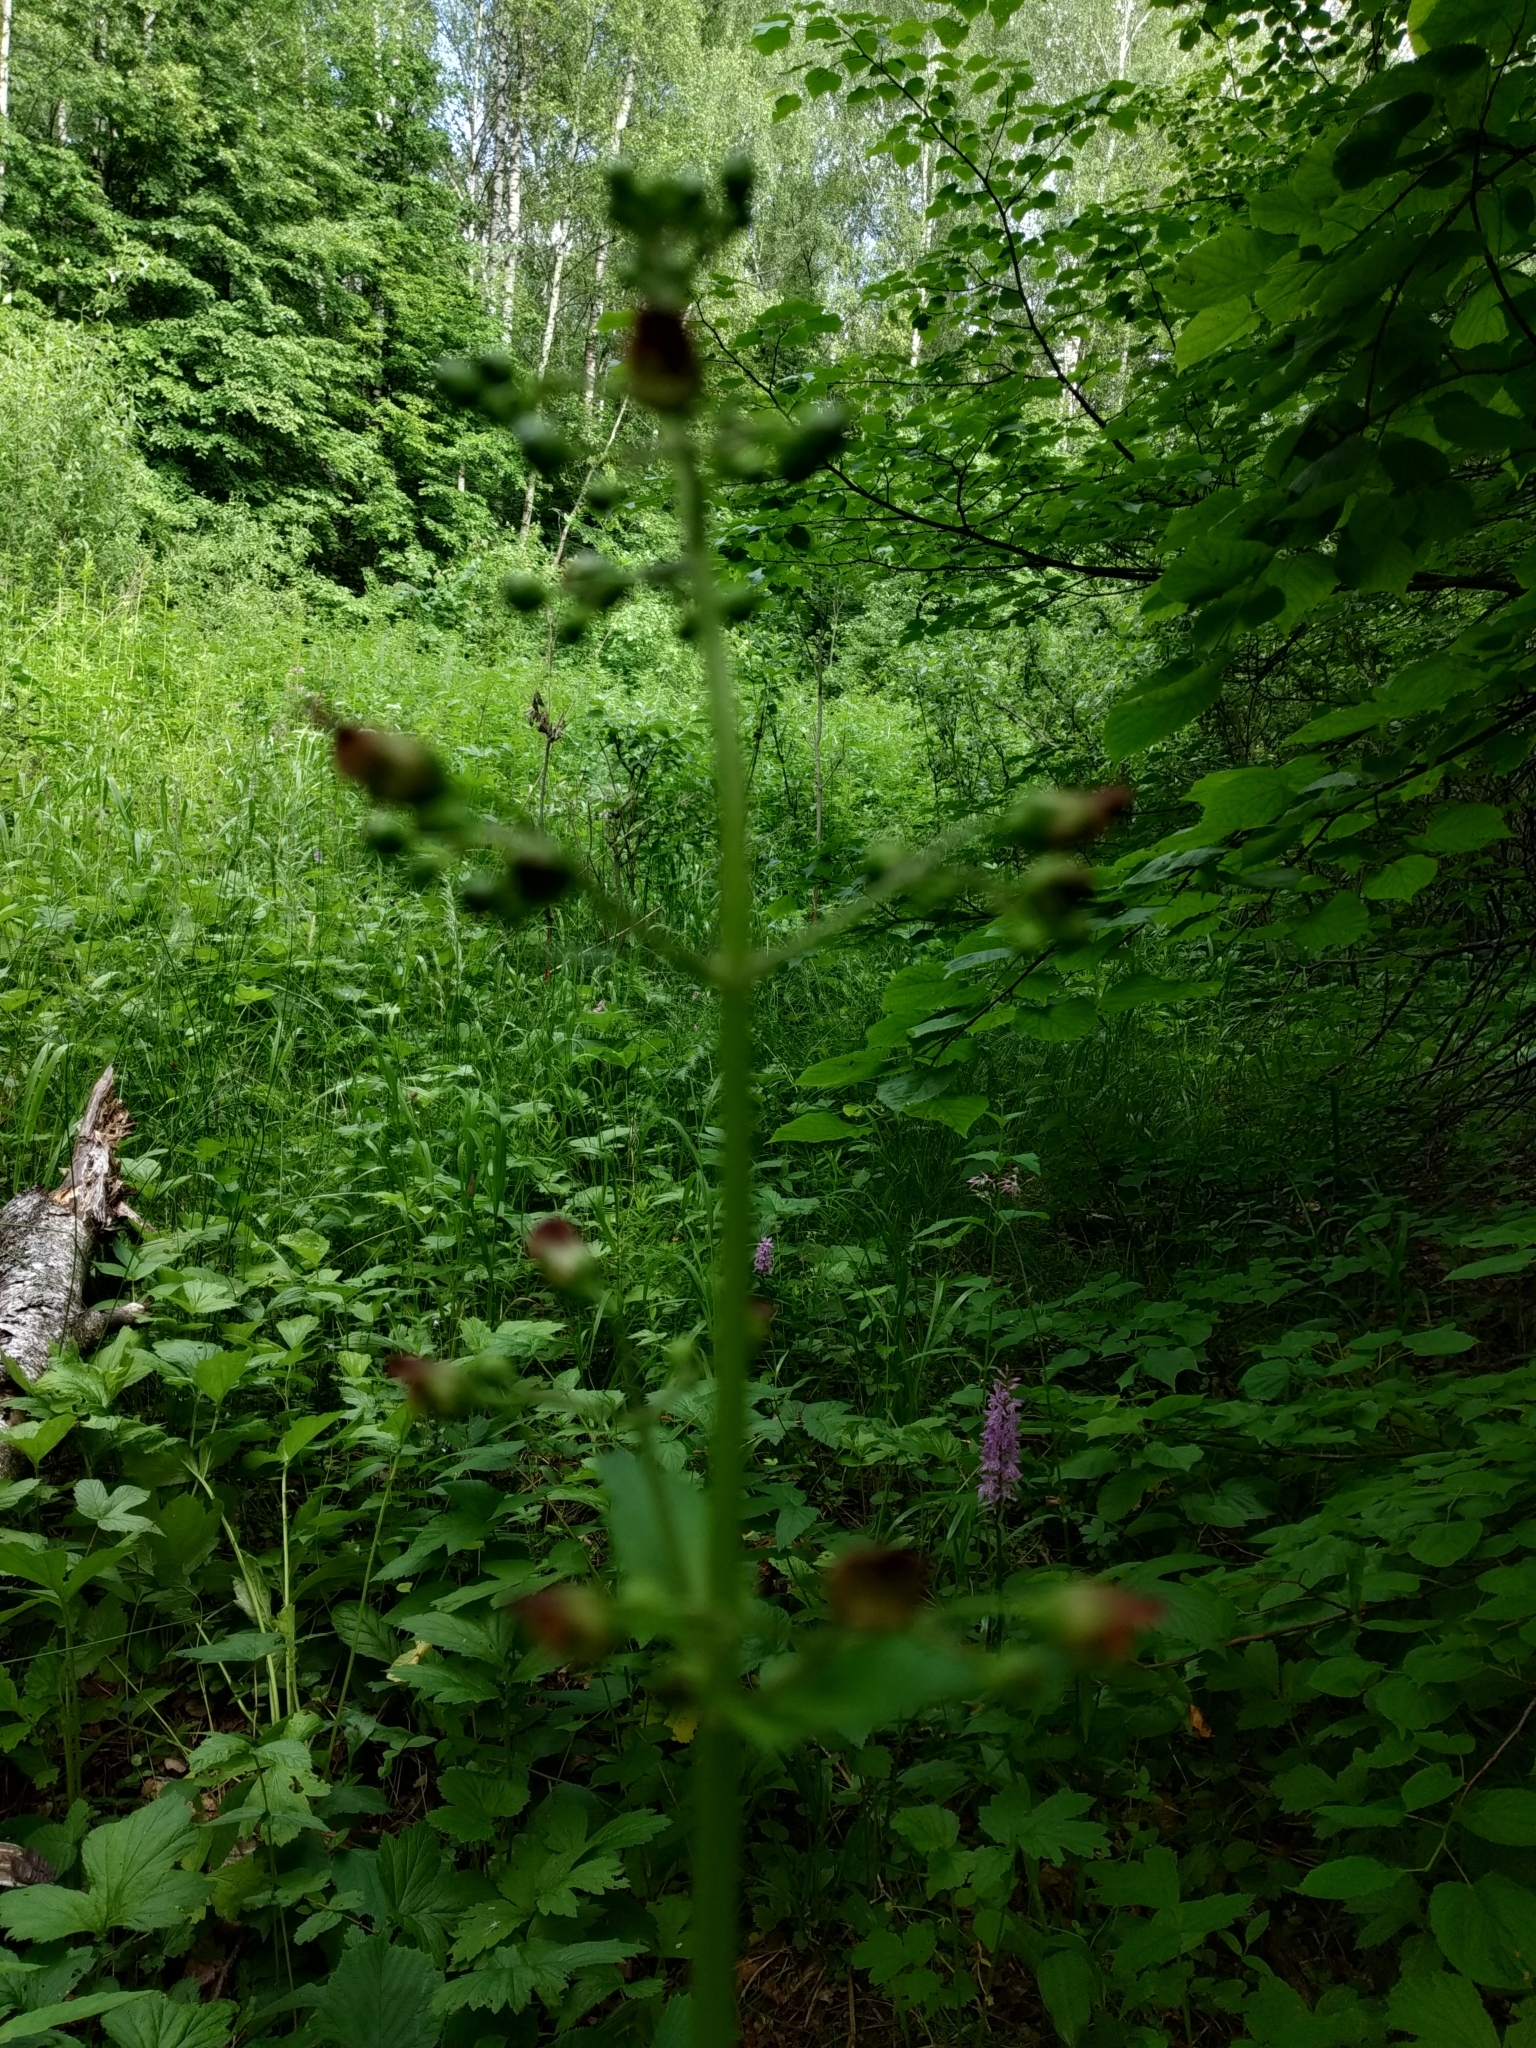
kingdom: Plantae
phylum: Tracheophyta
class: Magnoliopsida
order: Lamiales
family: Scrophulariaceae
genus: Scrophularia
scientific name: Scrophularia nodosa
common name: Common figwort
